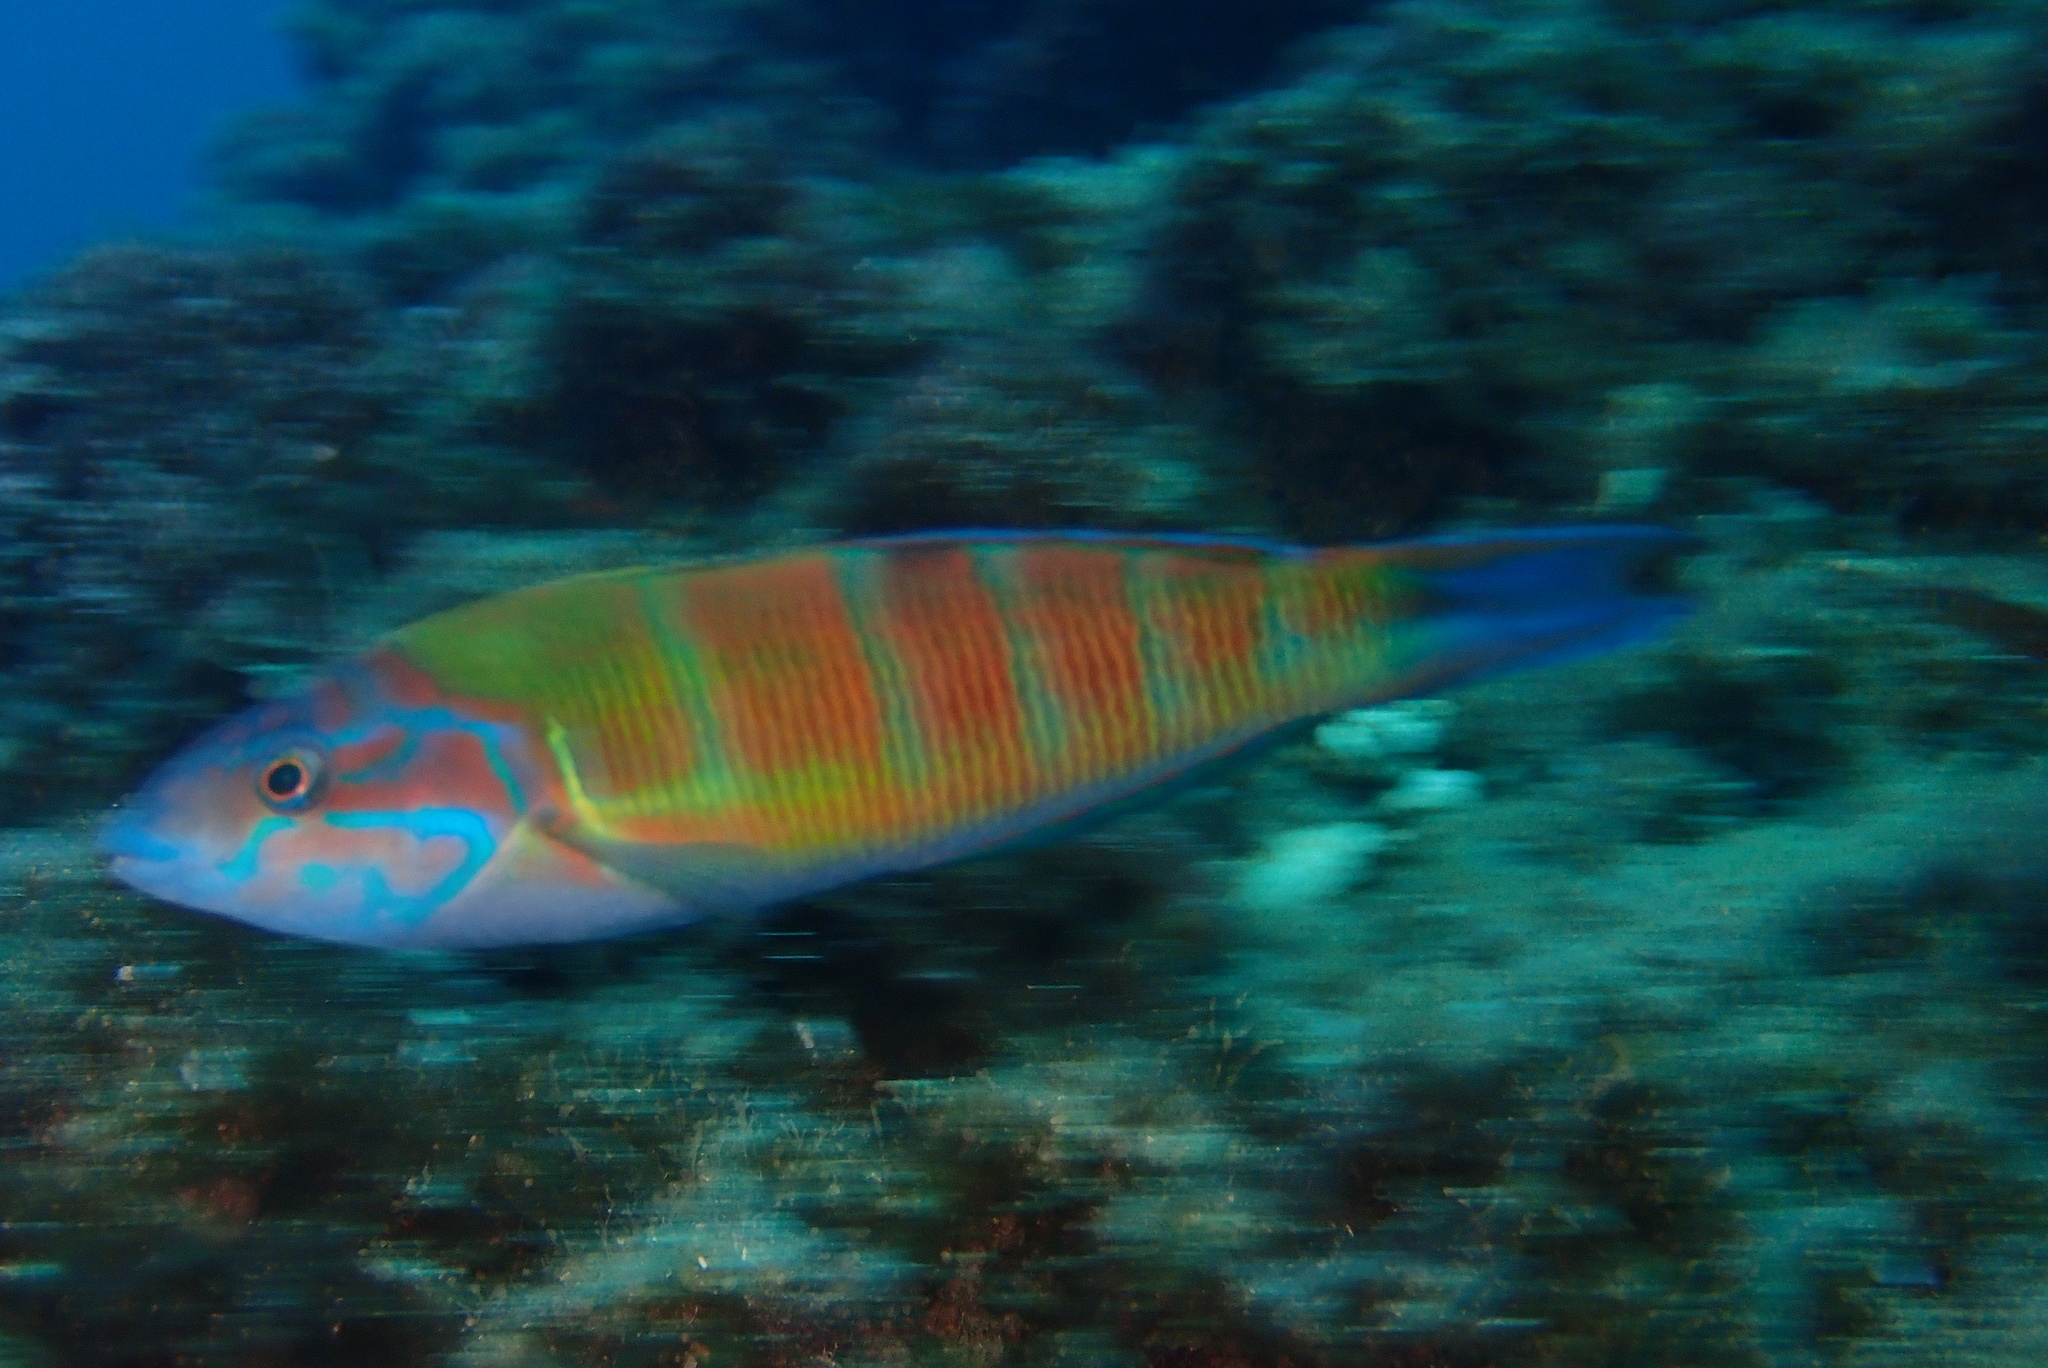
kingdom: Animalia
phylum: Chordata
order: Perciformes
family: Labridae
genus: Thalassoma
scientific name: Thalassoma pavo
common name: Ornate wrasse
